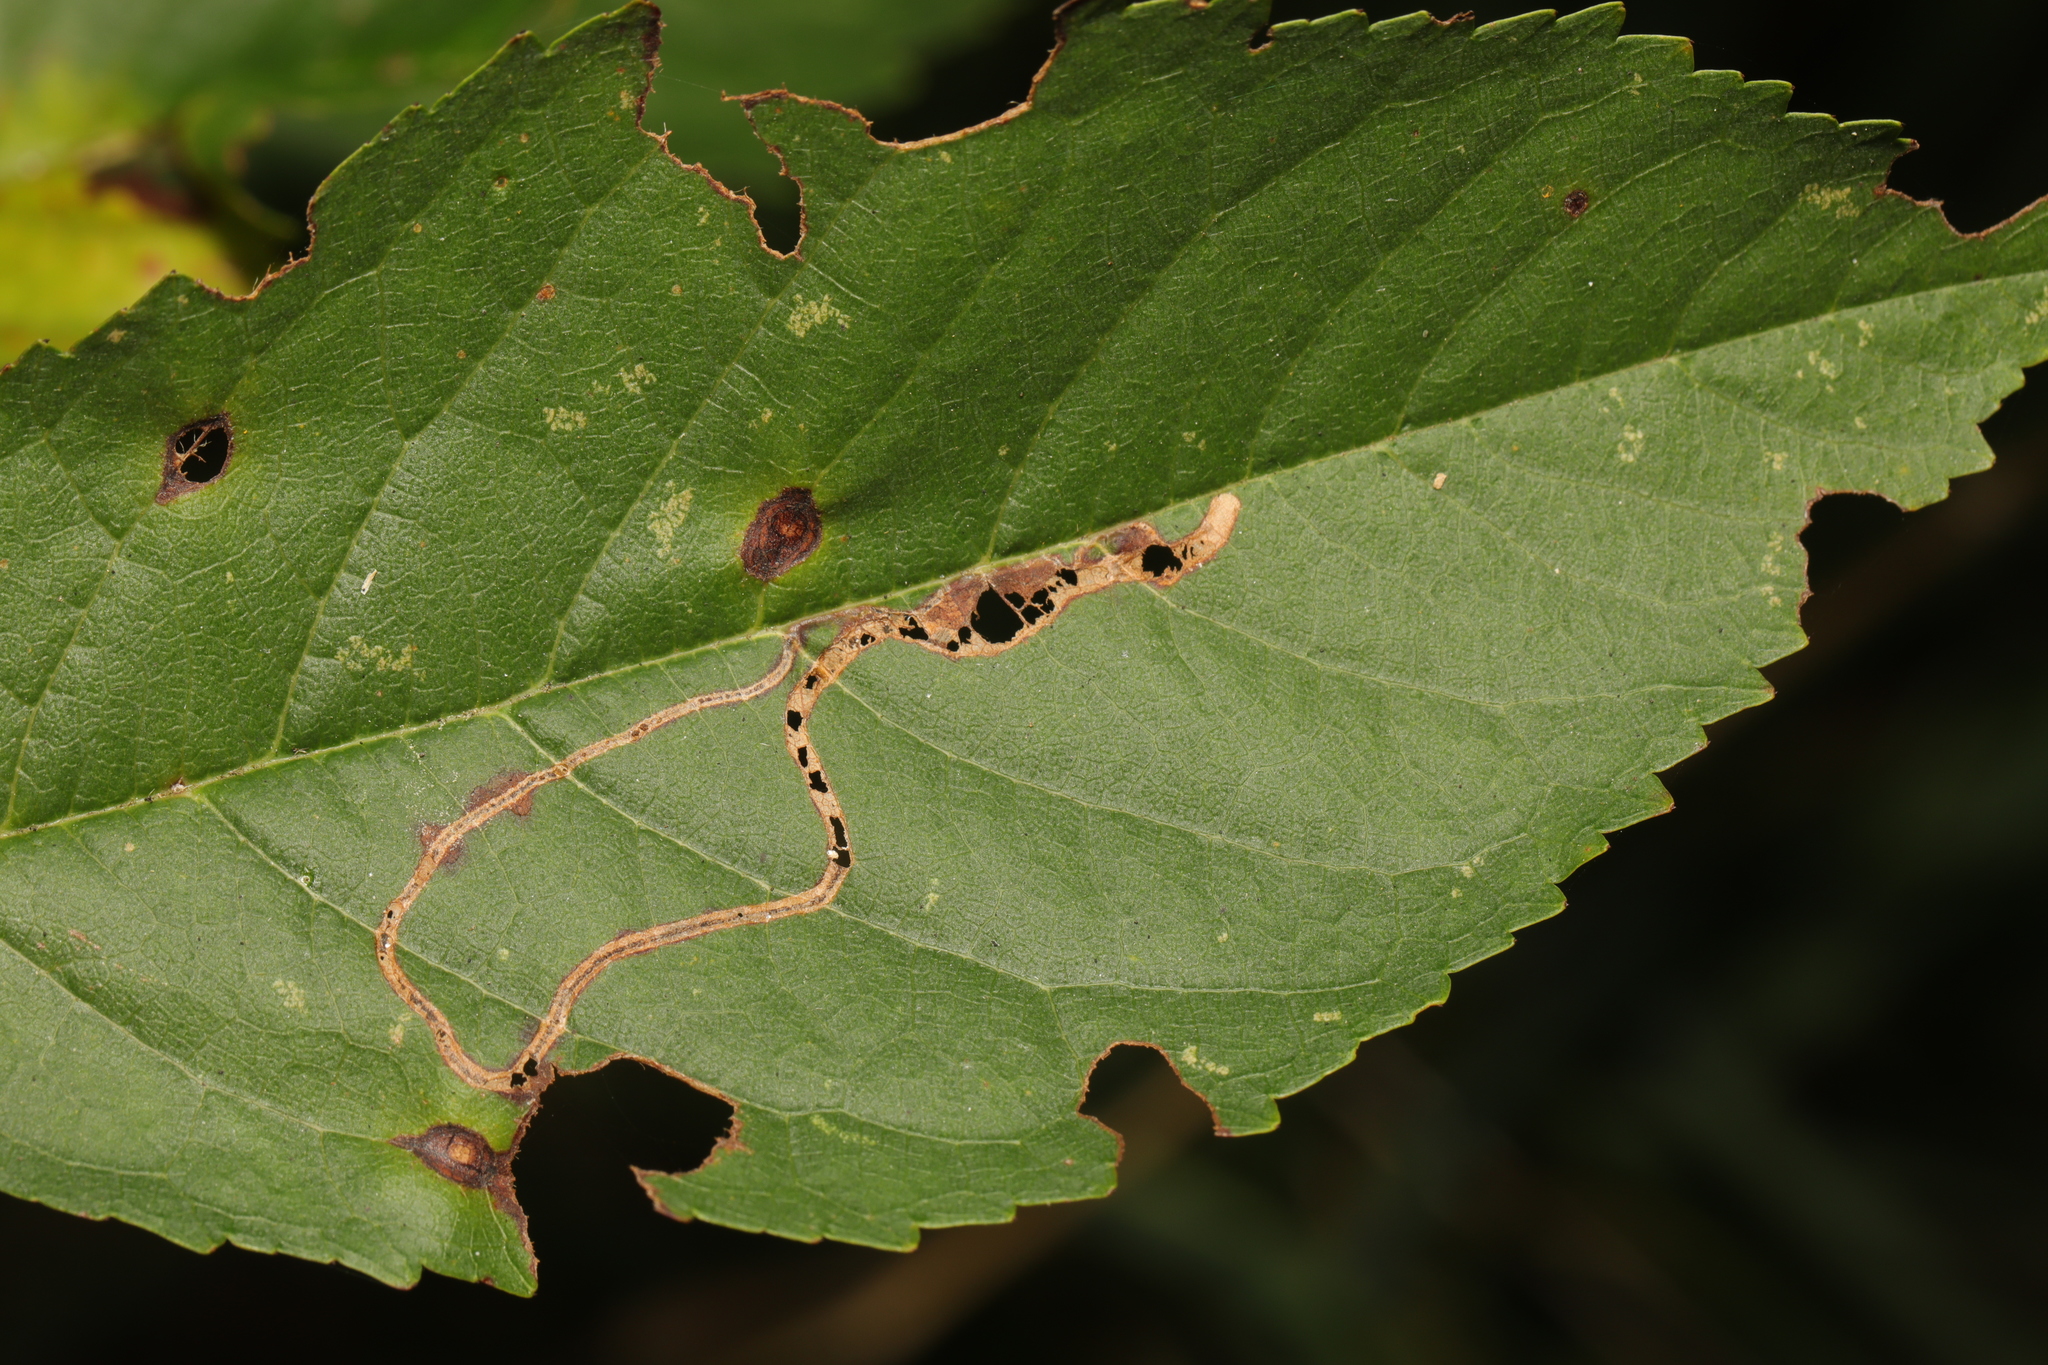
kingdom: Animalia
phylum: Arthropoda
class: Insecta
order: Lepidoptera
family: Lyonetiidae
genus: Lyonetia
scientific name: Lyonetia clerkella
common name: Apple leaf miner
